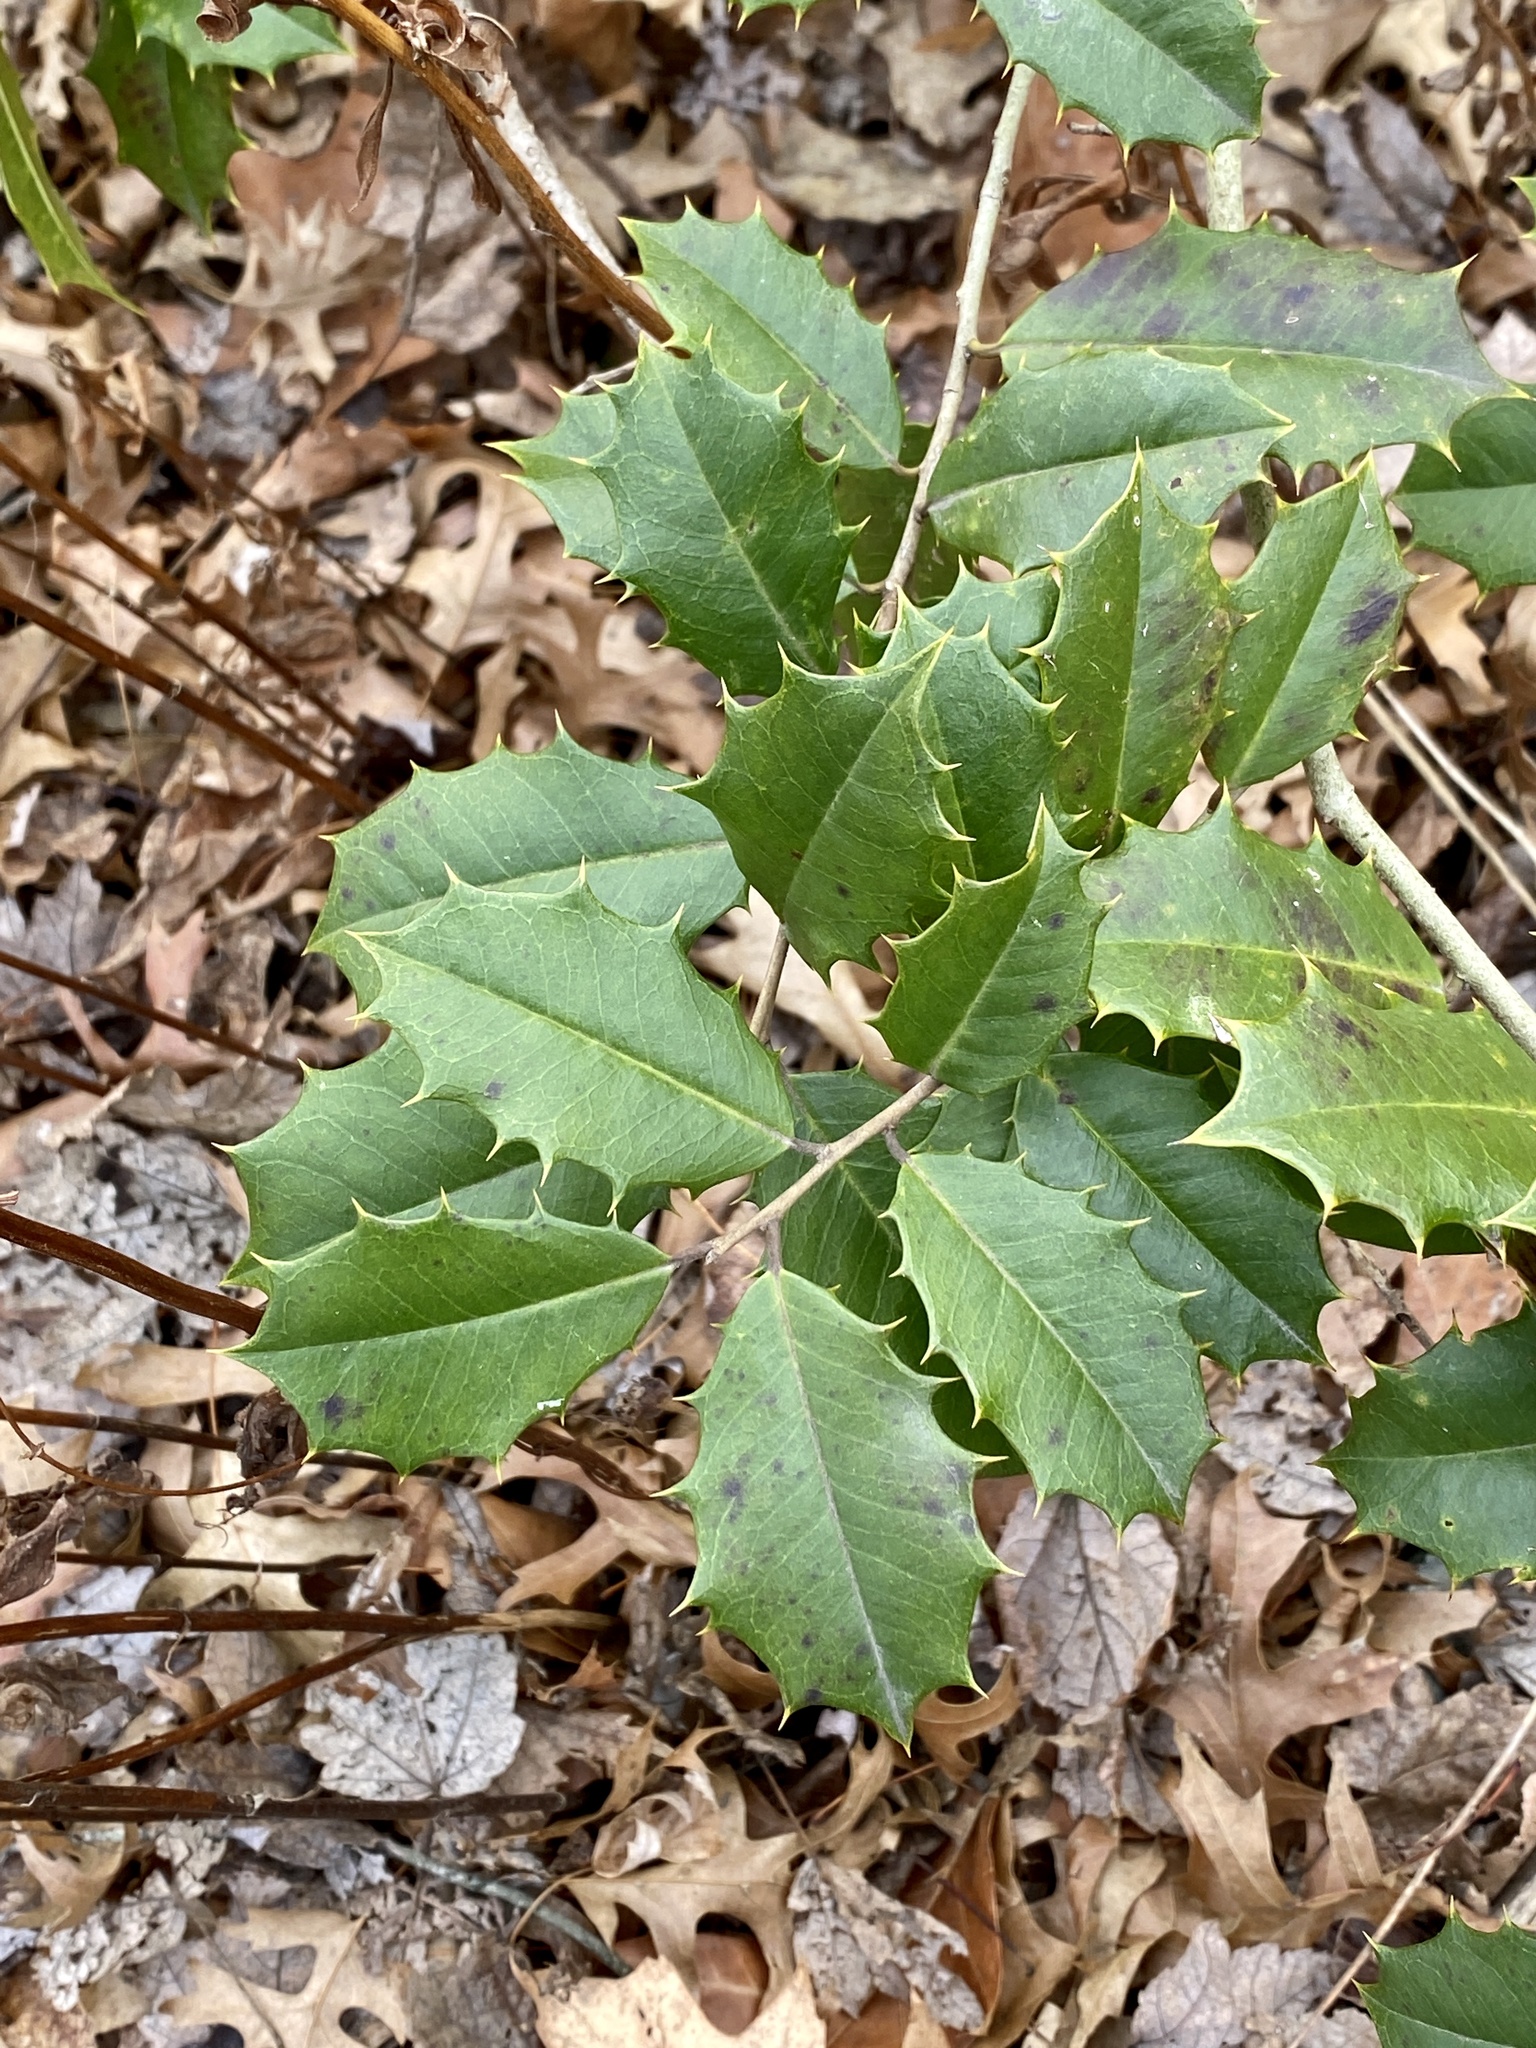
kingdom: Plantae
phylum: Tracheophyta
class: Magnoliopsida
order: Aquifoliales
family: Aquifoliaceae
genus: Ilex
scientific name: Ilex opaca
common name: American holly
